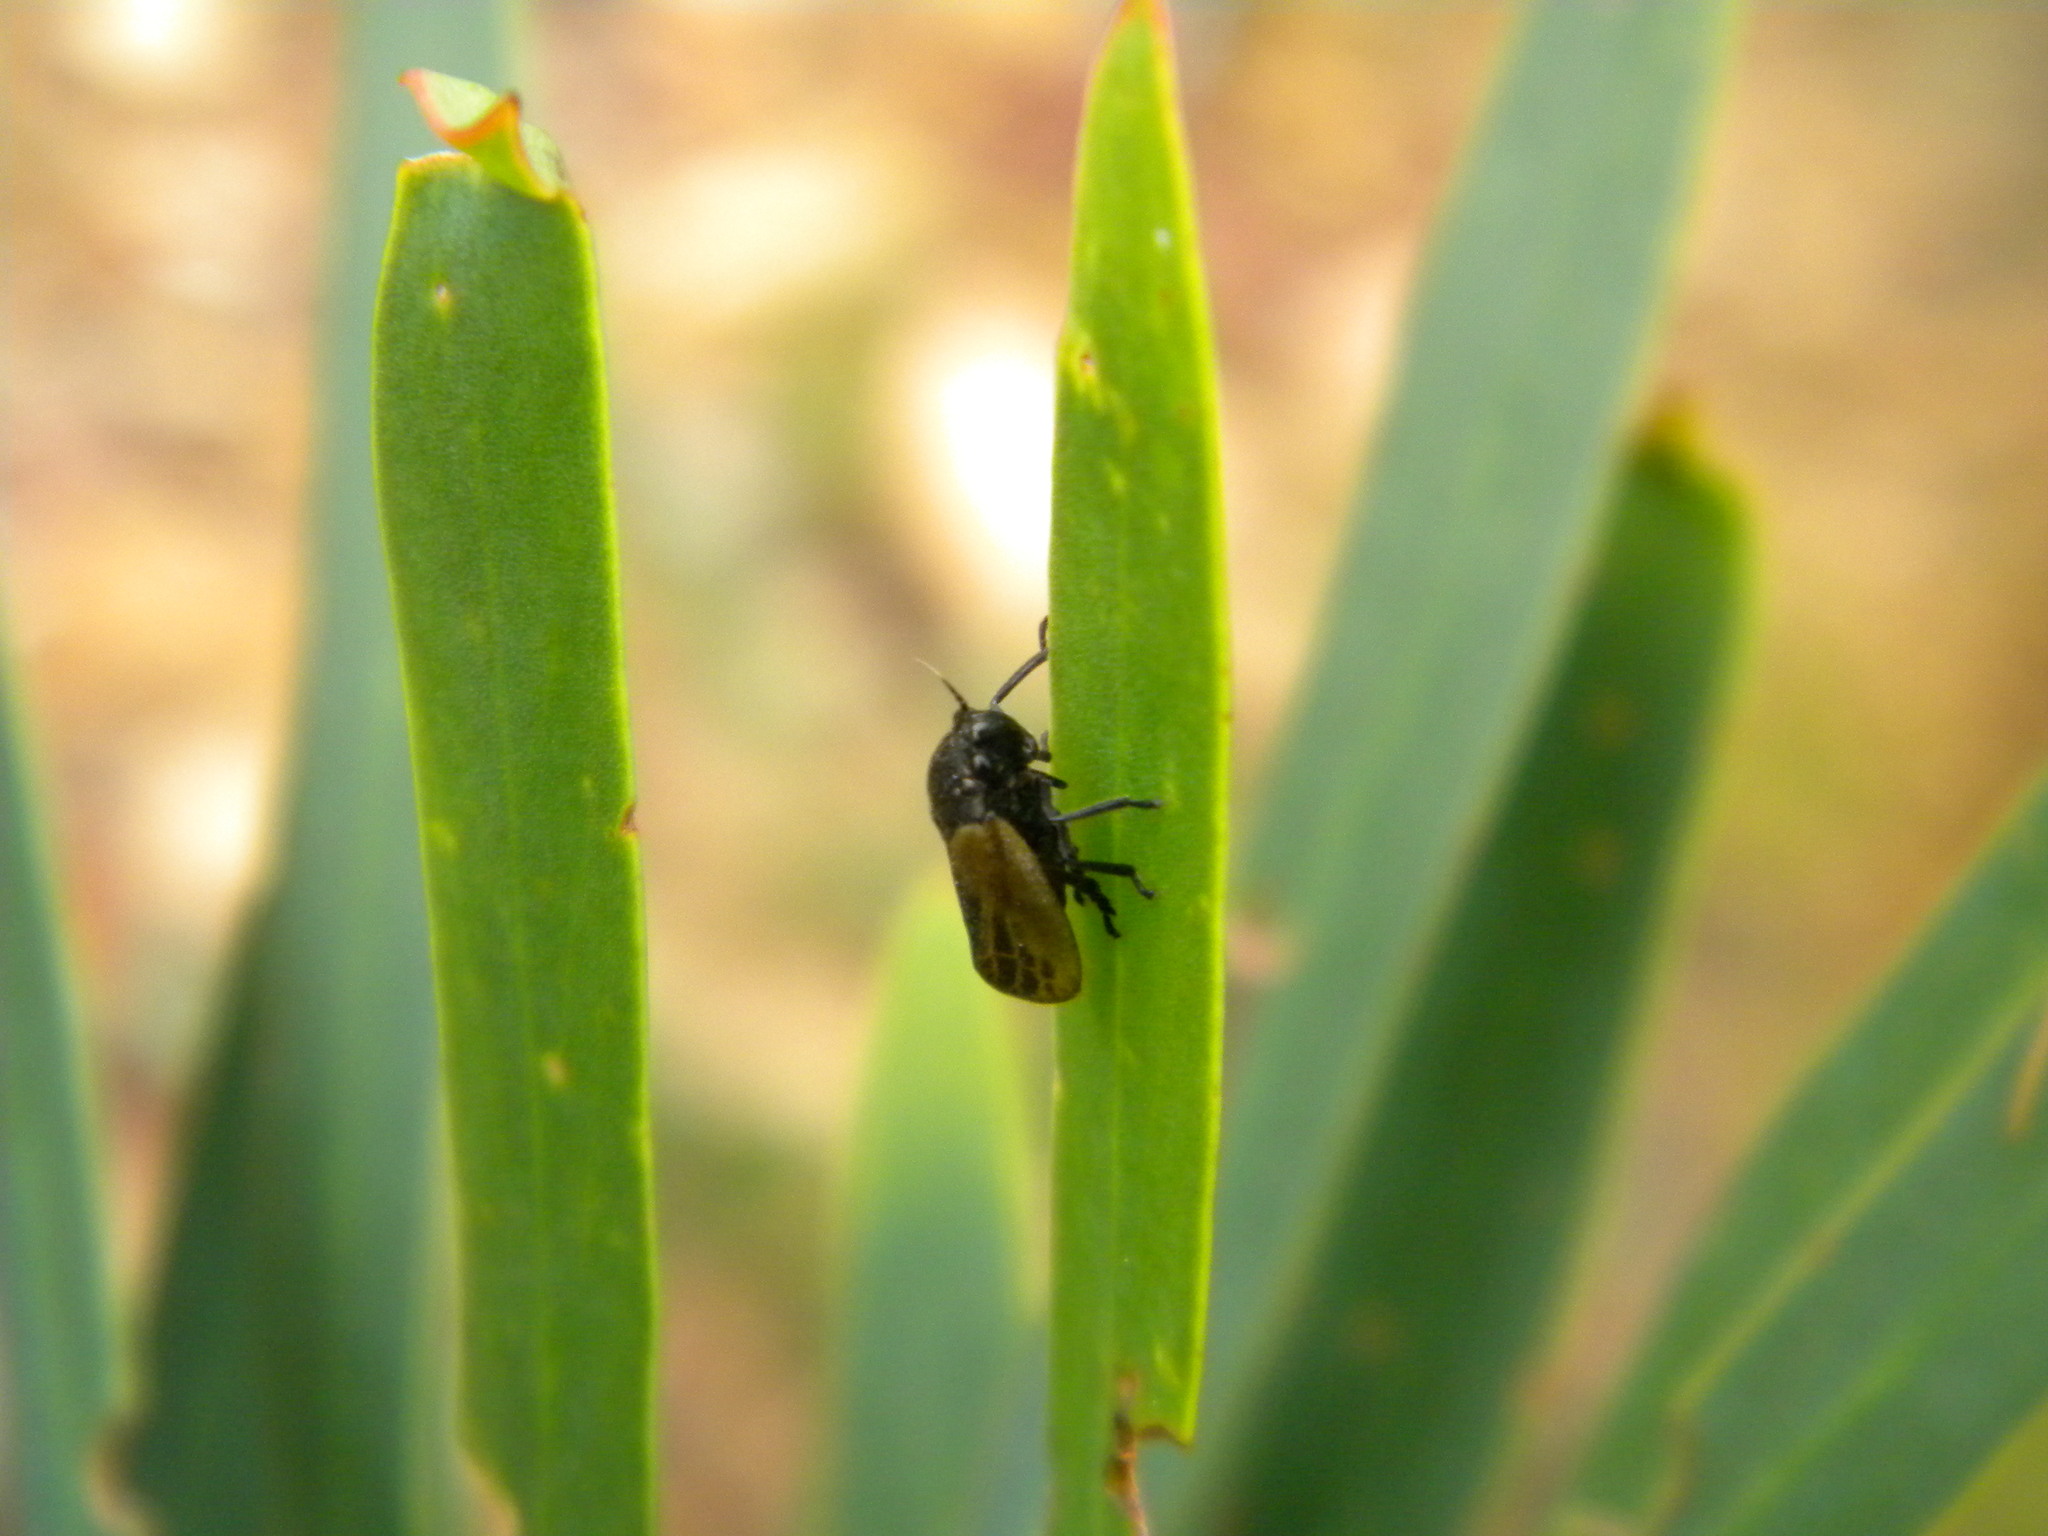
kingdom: Animalia
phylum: Arthropoda
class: Insecta
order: Hemiptera
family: Cercopidae
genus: Rhinaulax
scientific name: Rhinaulax analis
